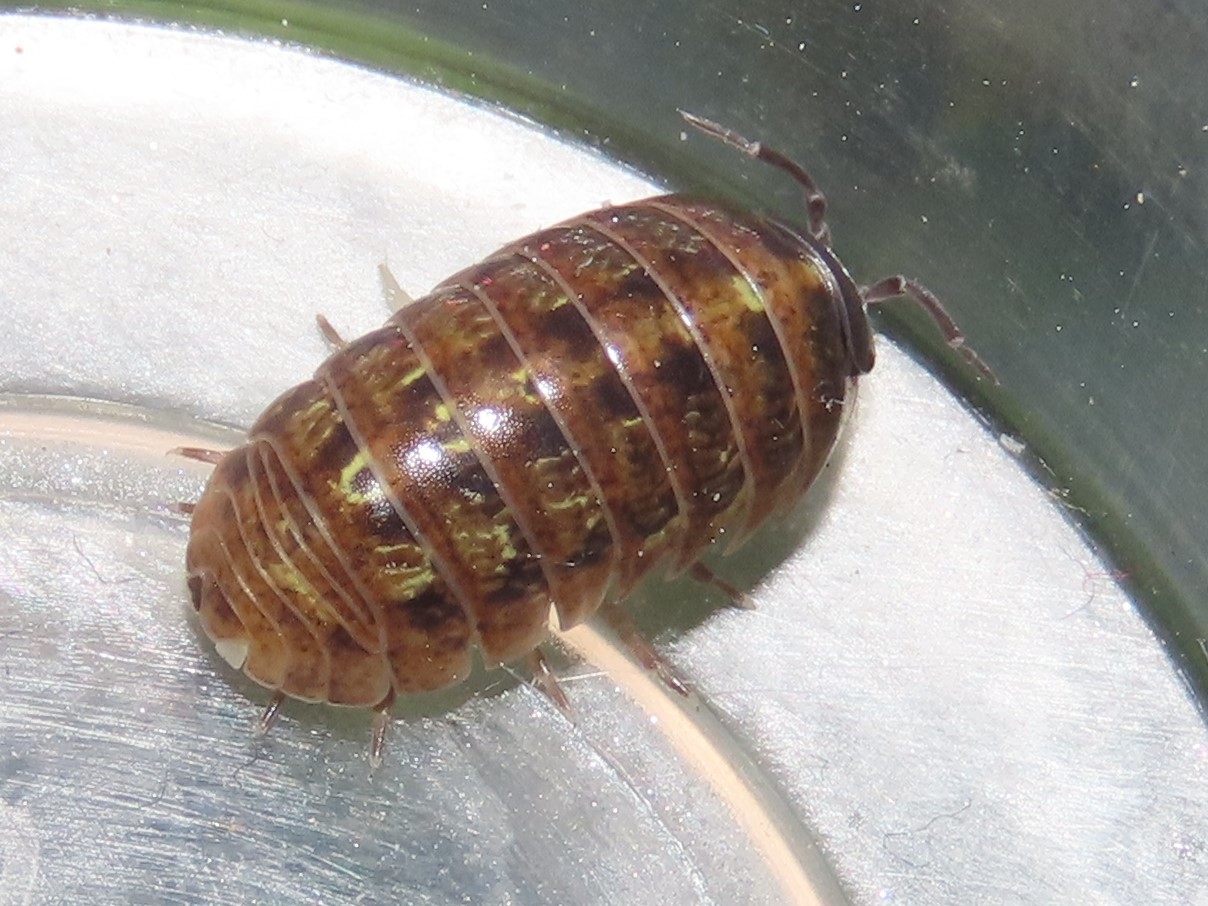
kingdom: Animalia
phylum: Arthropoda
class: Malacostraca
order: Isopoda
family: Armadillidiidae
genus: Armadillidium
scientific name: Armadillidium vulgare
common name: Common pill woodlouse
